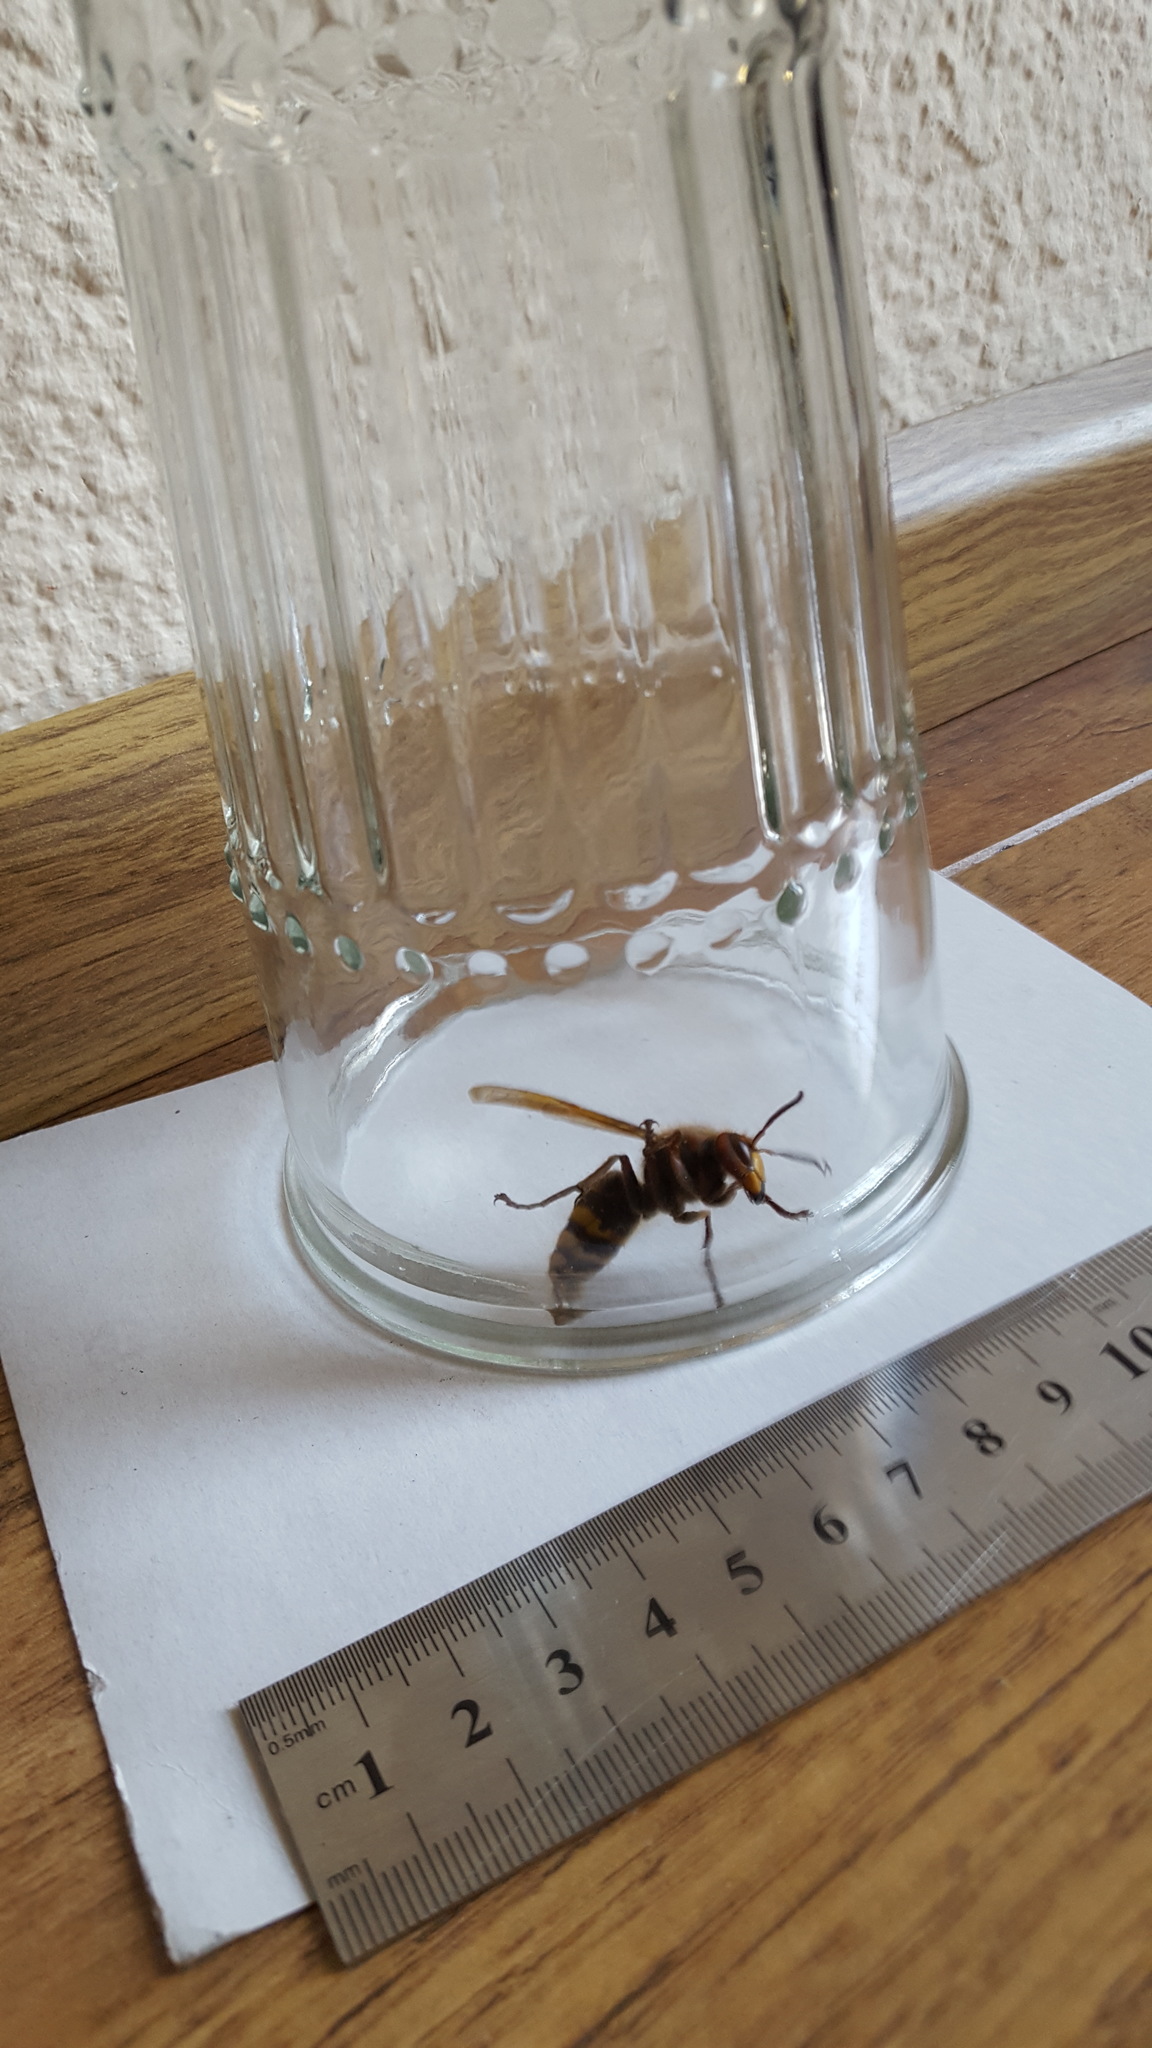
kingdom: Animalia
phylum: Arthropoda
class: Insecta
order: Hymenoptera
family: Vespidae
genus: Vespa
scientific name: Vespa crabro
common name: Hornet
